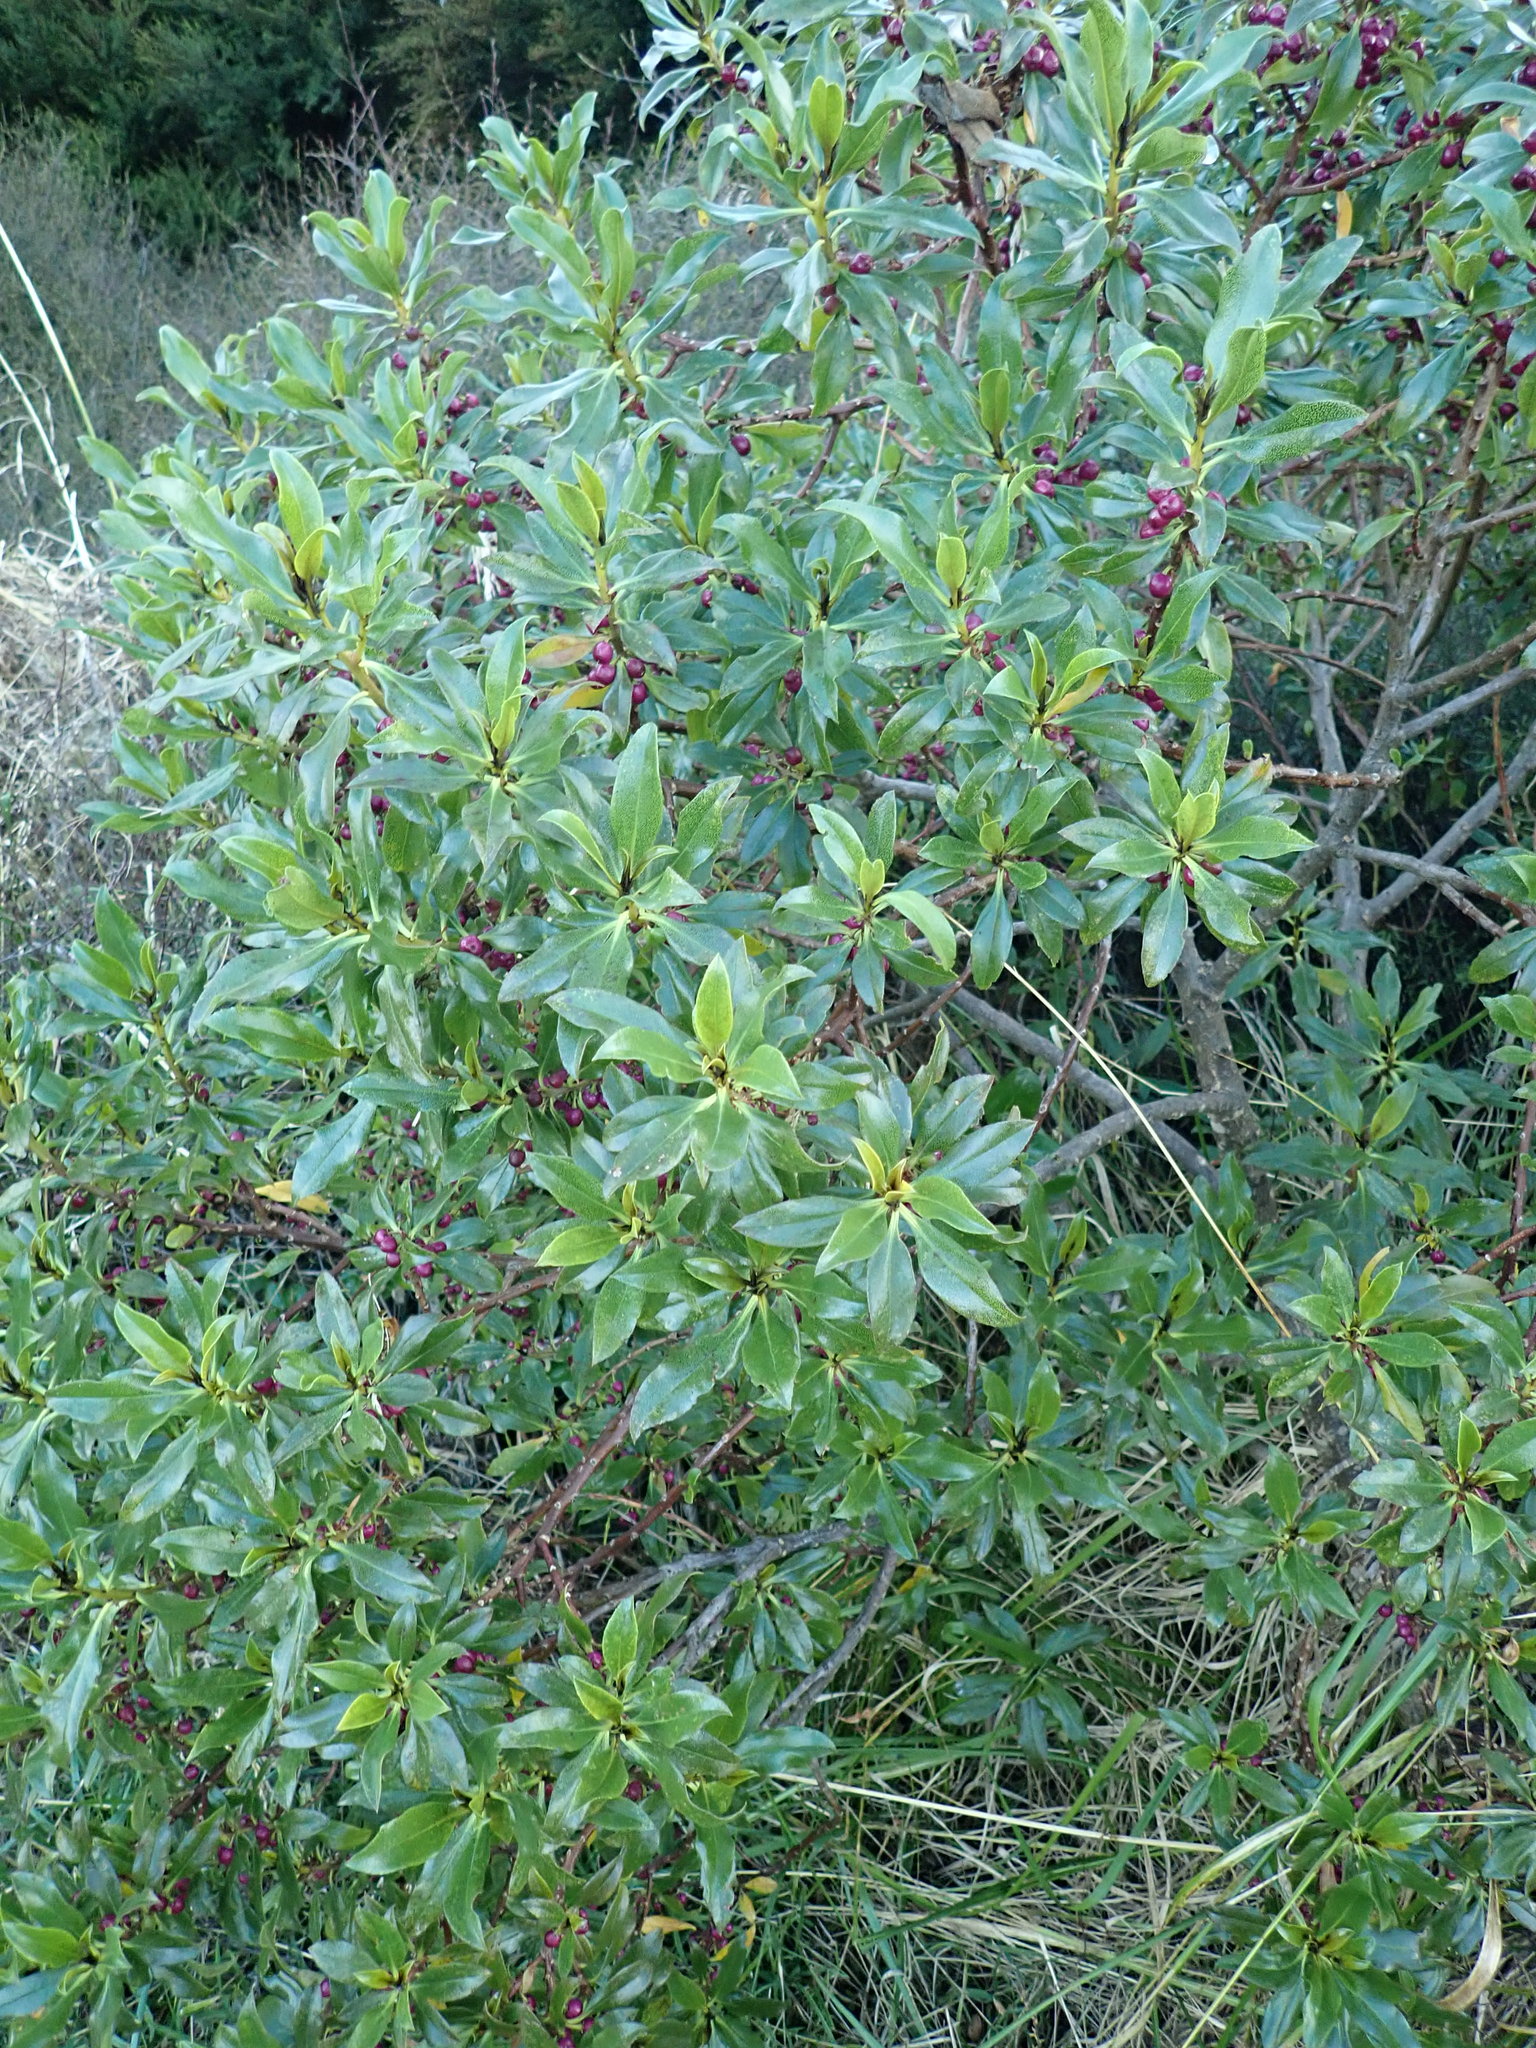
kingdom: Plantae
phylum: Tracheophyta
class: Magnoliopsida
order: Lamiales
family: Scrophulariaceae
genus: Myoporum
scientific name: Myoporum laetum
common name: Ngaio tree
